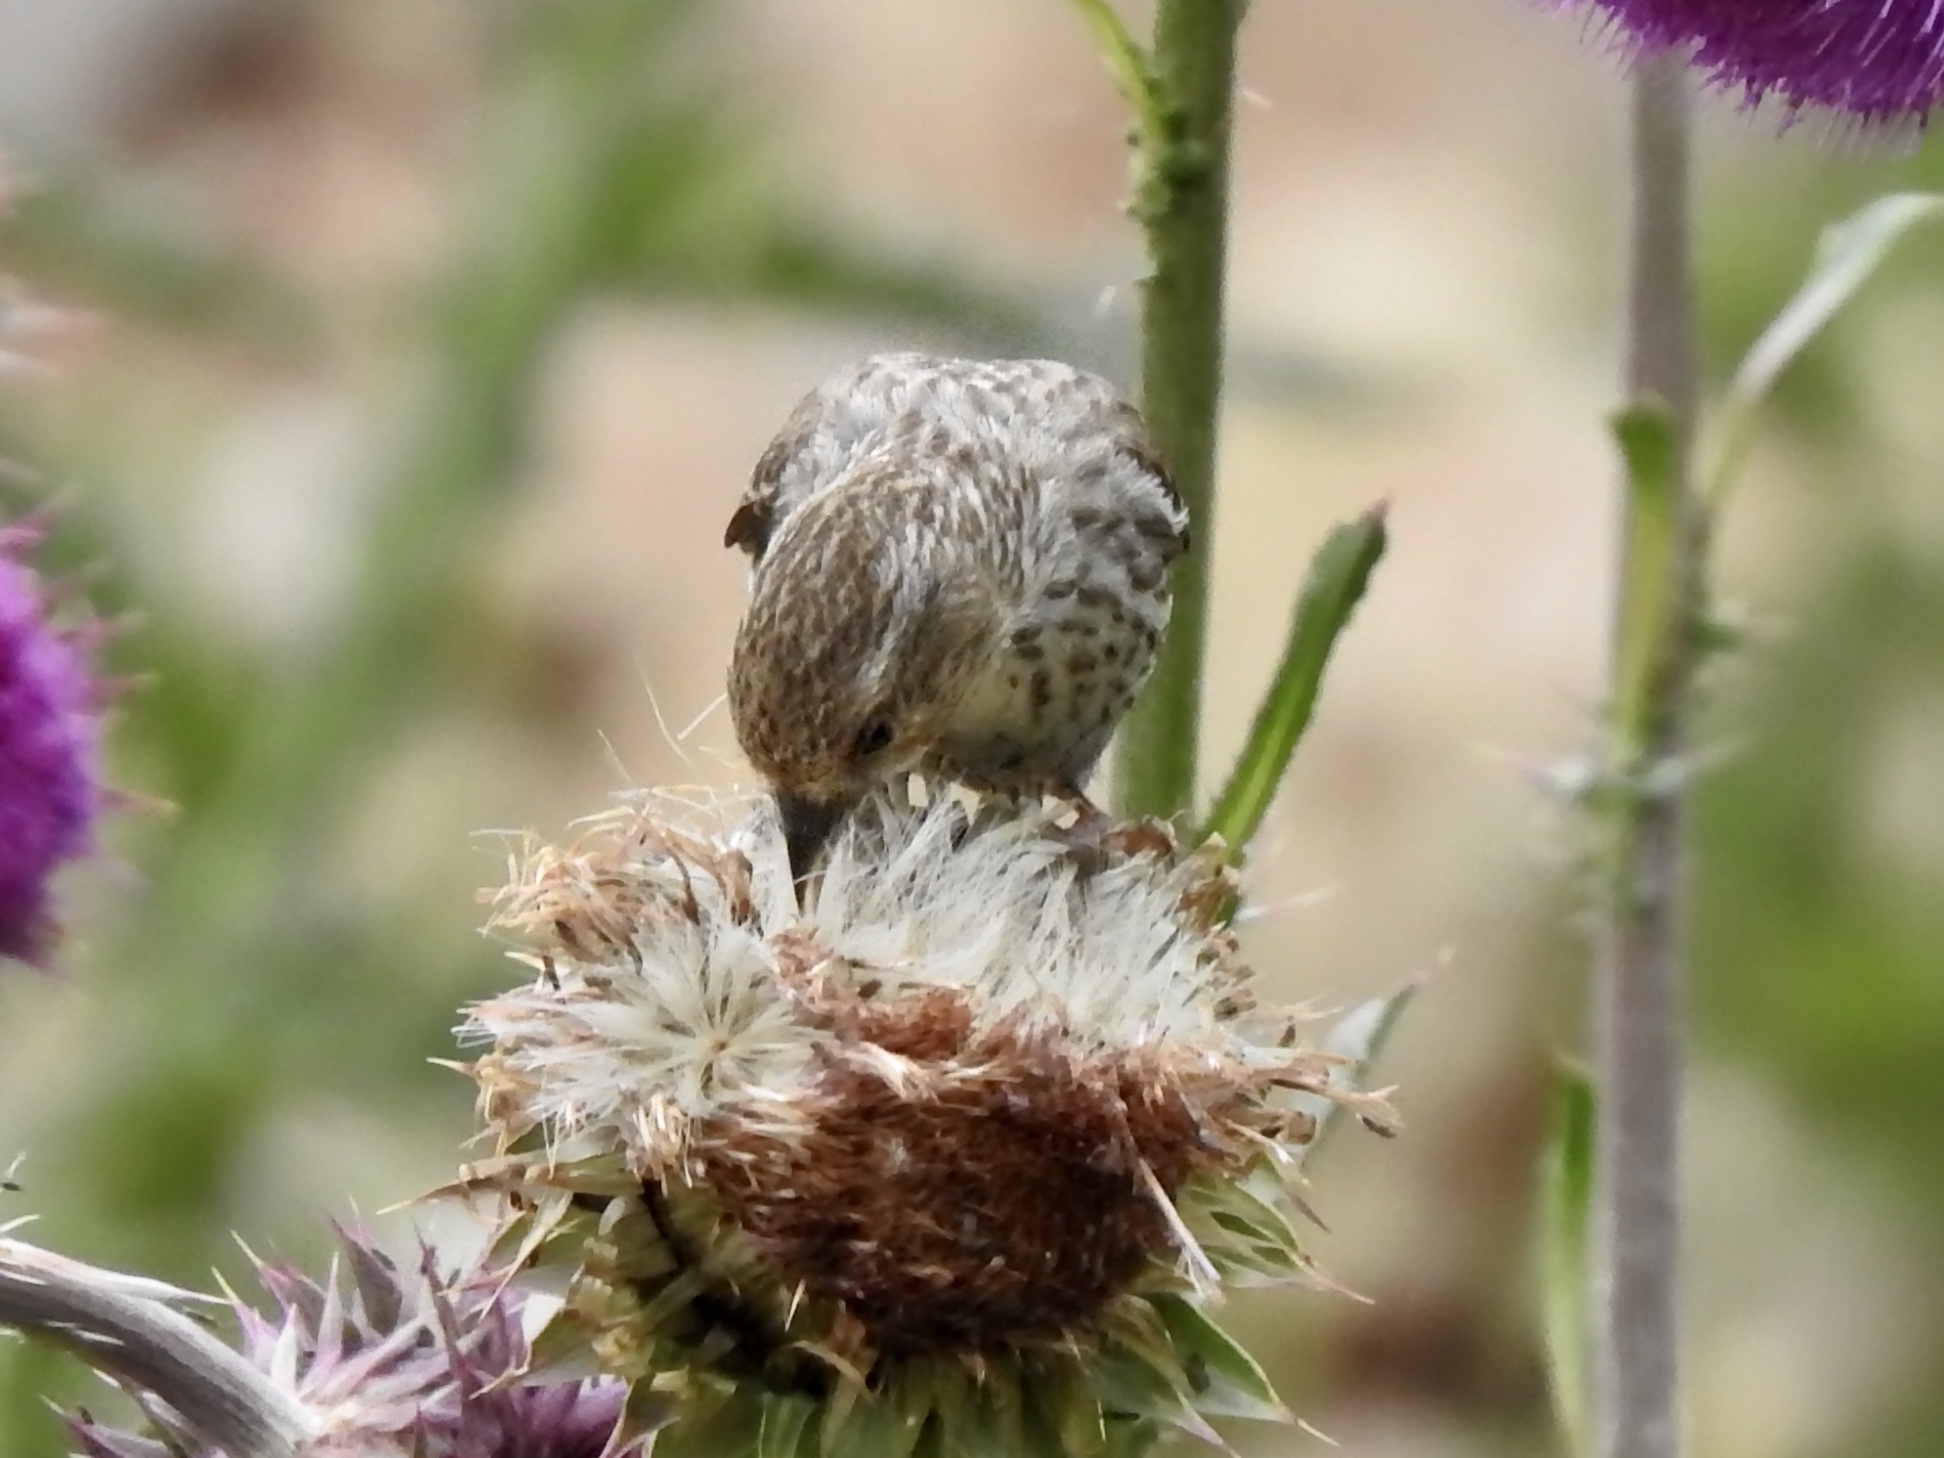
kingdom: Animalia
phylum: Chordata
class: Aves
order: Passeriformes
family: Fringillidae
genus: Spinus
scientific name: Spinus pinus
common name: Pine siskin
